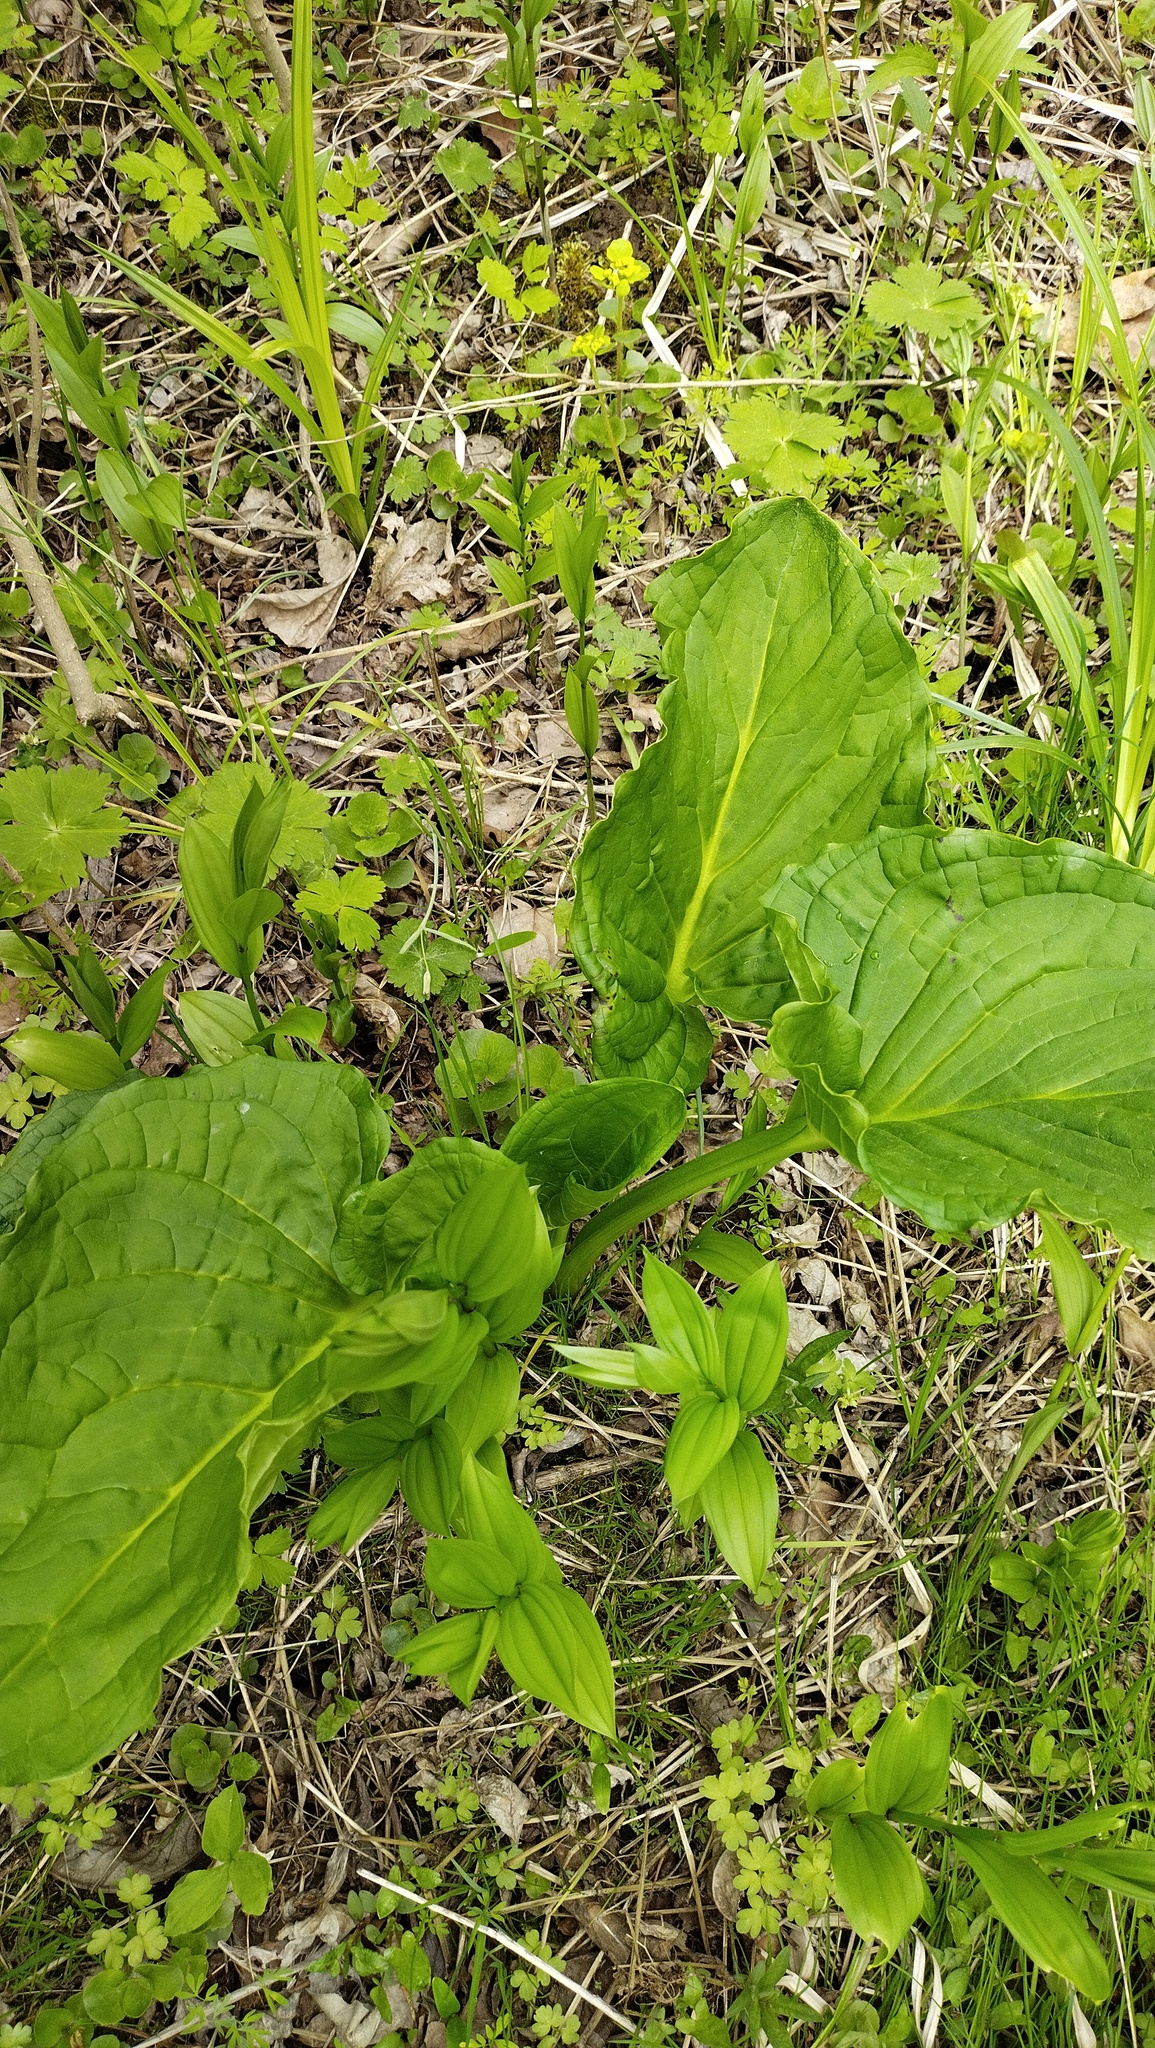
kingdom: Plantae
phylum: Tracheophyta
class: Liliopsida
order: Alismatales
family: Araceae
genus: Symplocarpus
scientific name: Symplocarpus renifolius
